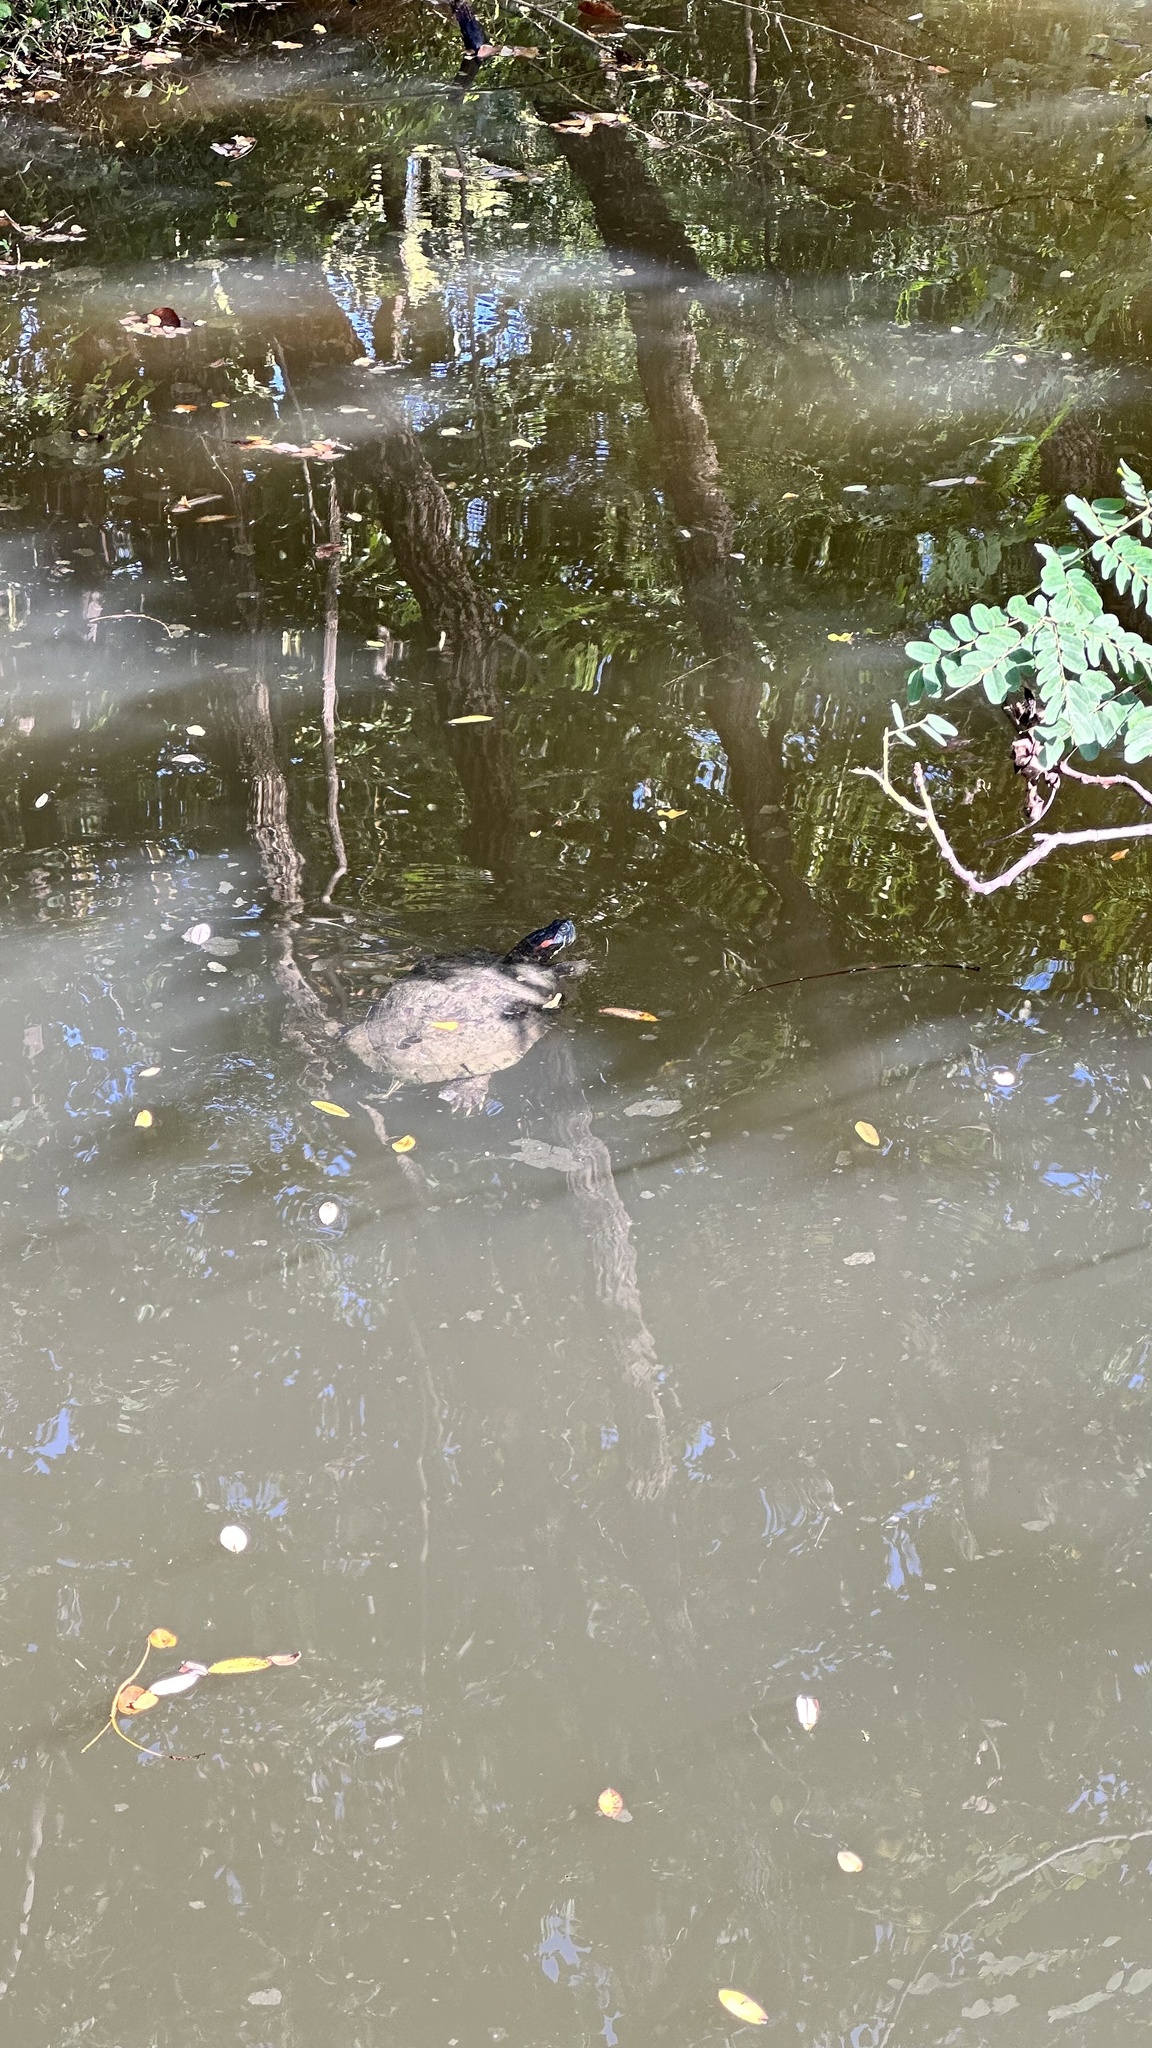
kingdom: Animalia
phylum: Chordata
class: Testudines
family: Emydidae
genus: Trachemys
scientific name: Trachemys scripta
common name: Slider
